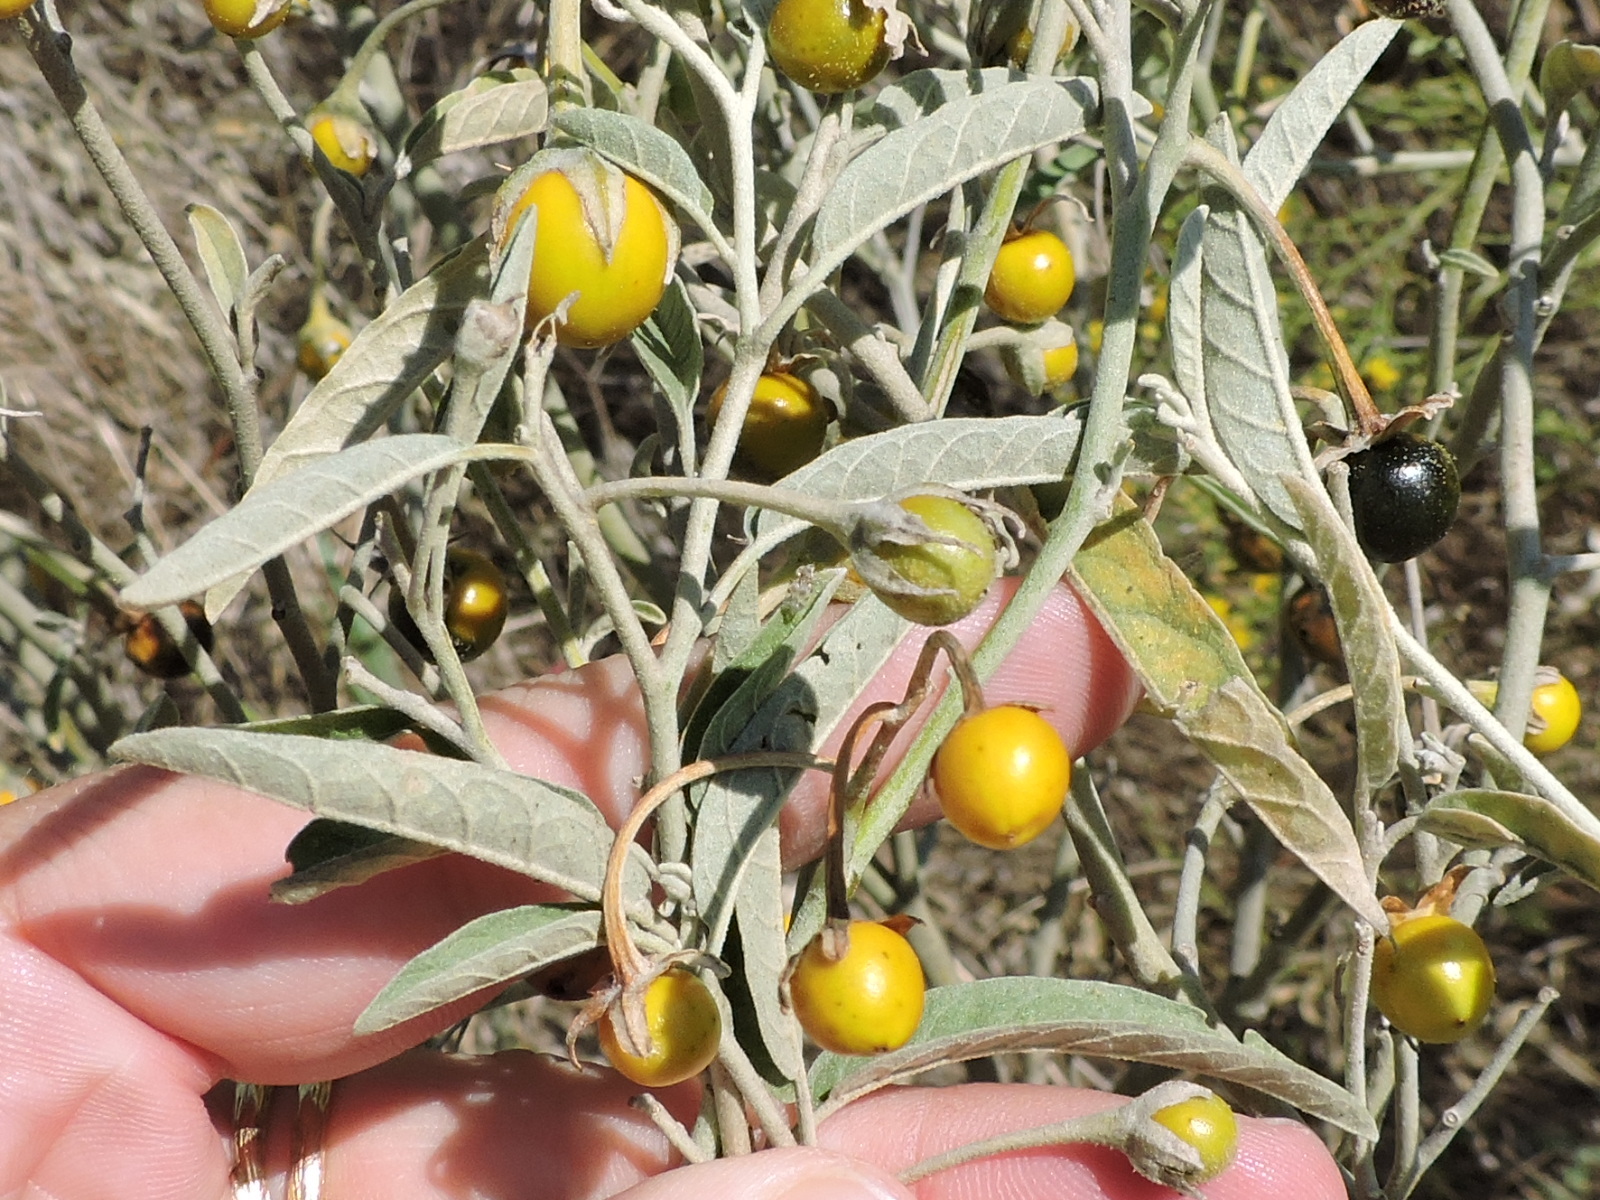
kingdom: Plantae
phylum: Tracheophyta
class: Magnoliopsida
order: Solanales
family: Solanaceae
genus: Solanum
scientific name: Solanum elaeagnifolium
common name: Silverleaf nightshade
